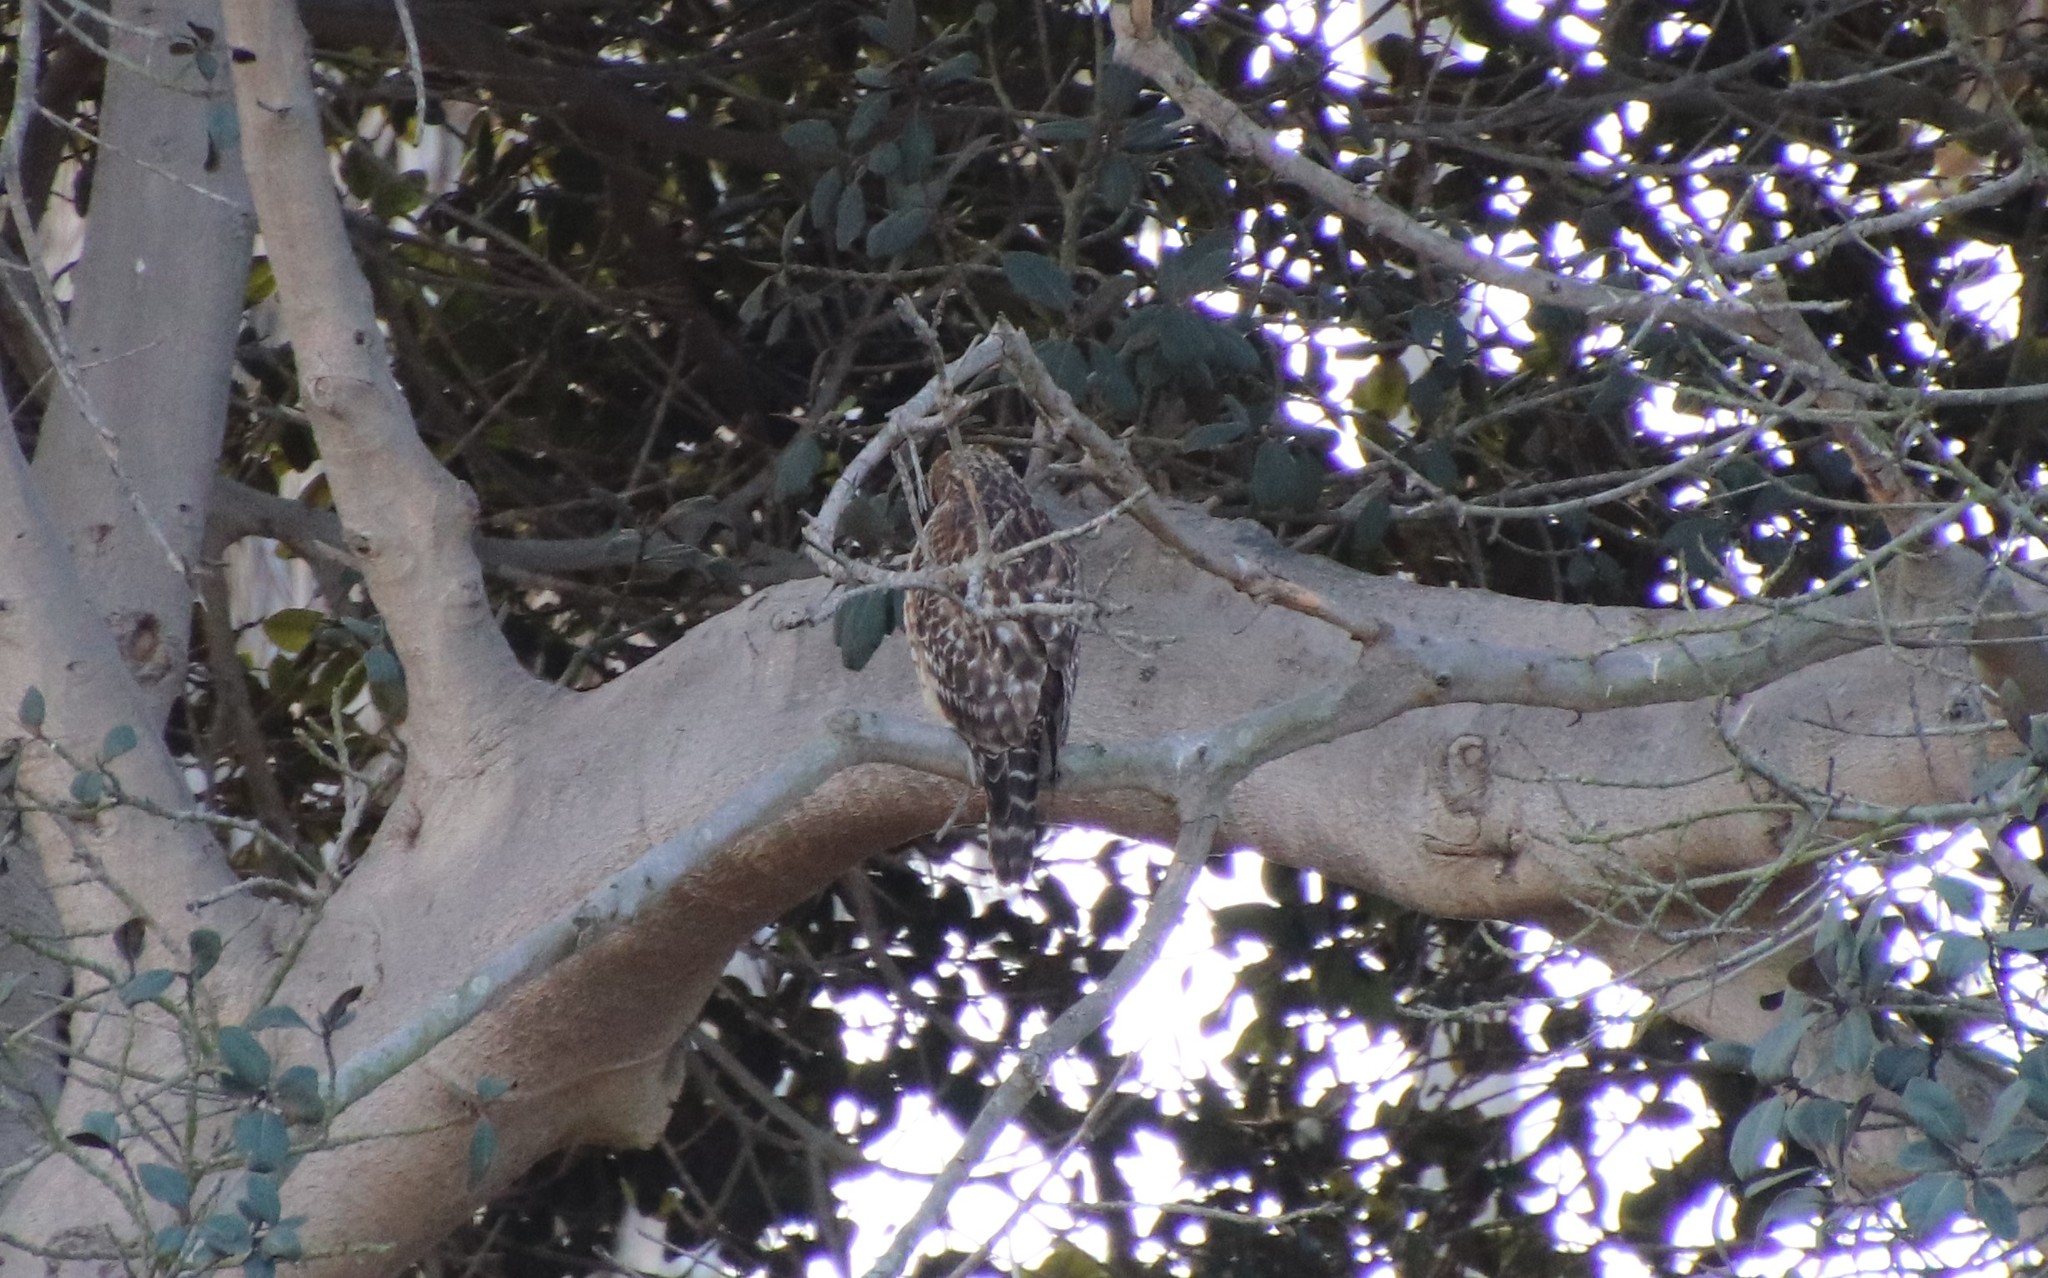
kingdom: Animalia
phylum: Chordata
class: Aves
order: Accipitriformes
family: Accipitridae
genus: Buteo
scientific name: Buteo lineatus
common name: Red-shouldered hawk
